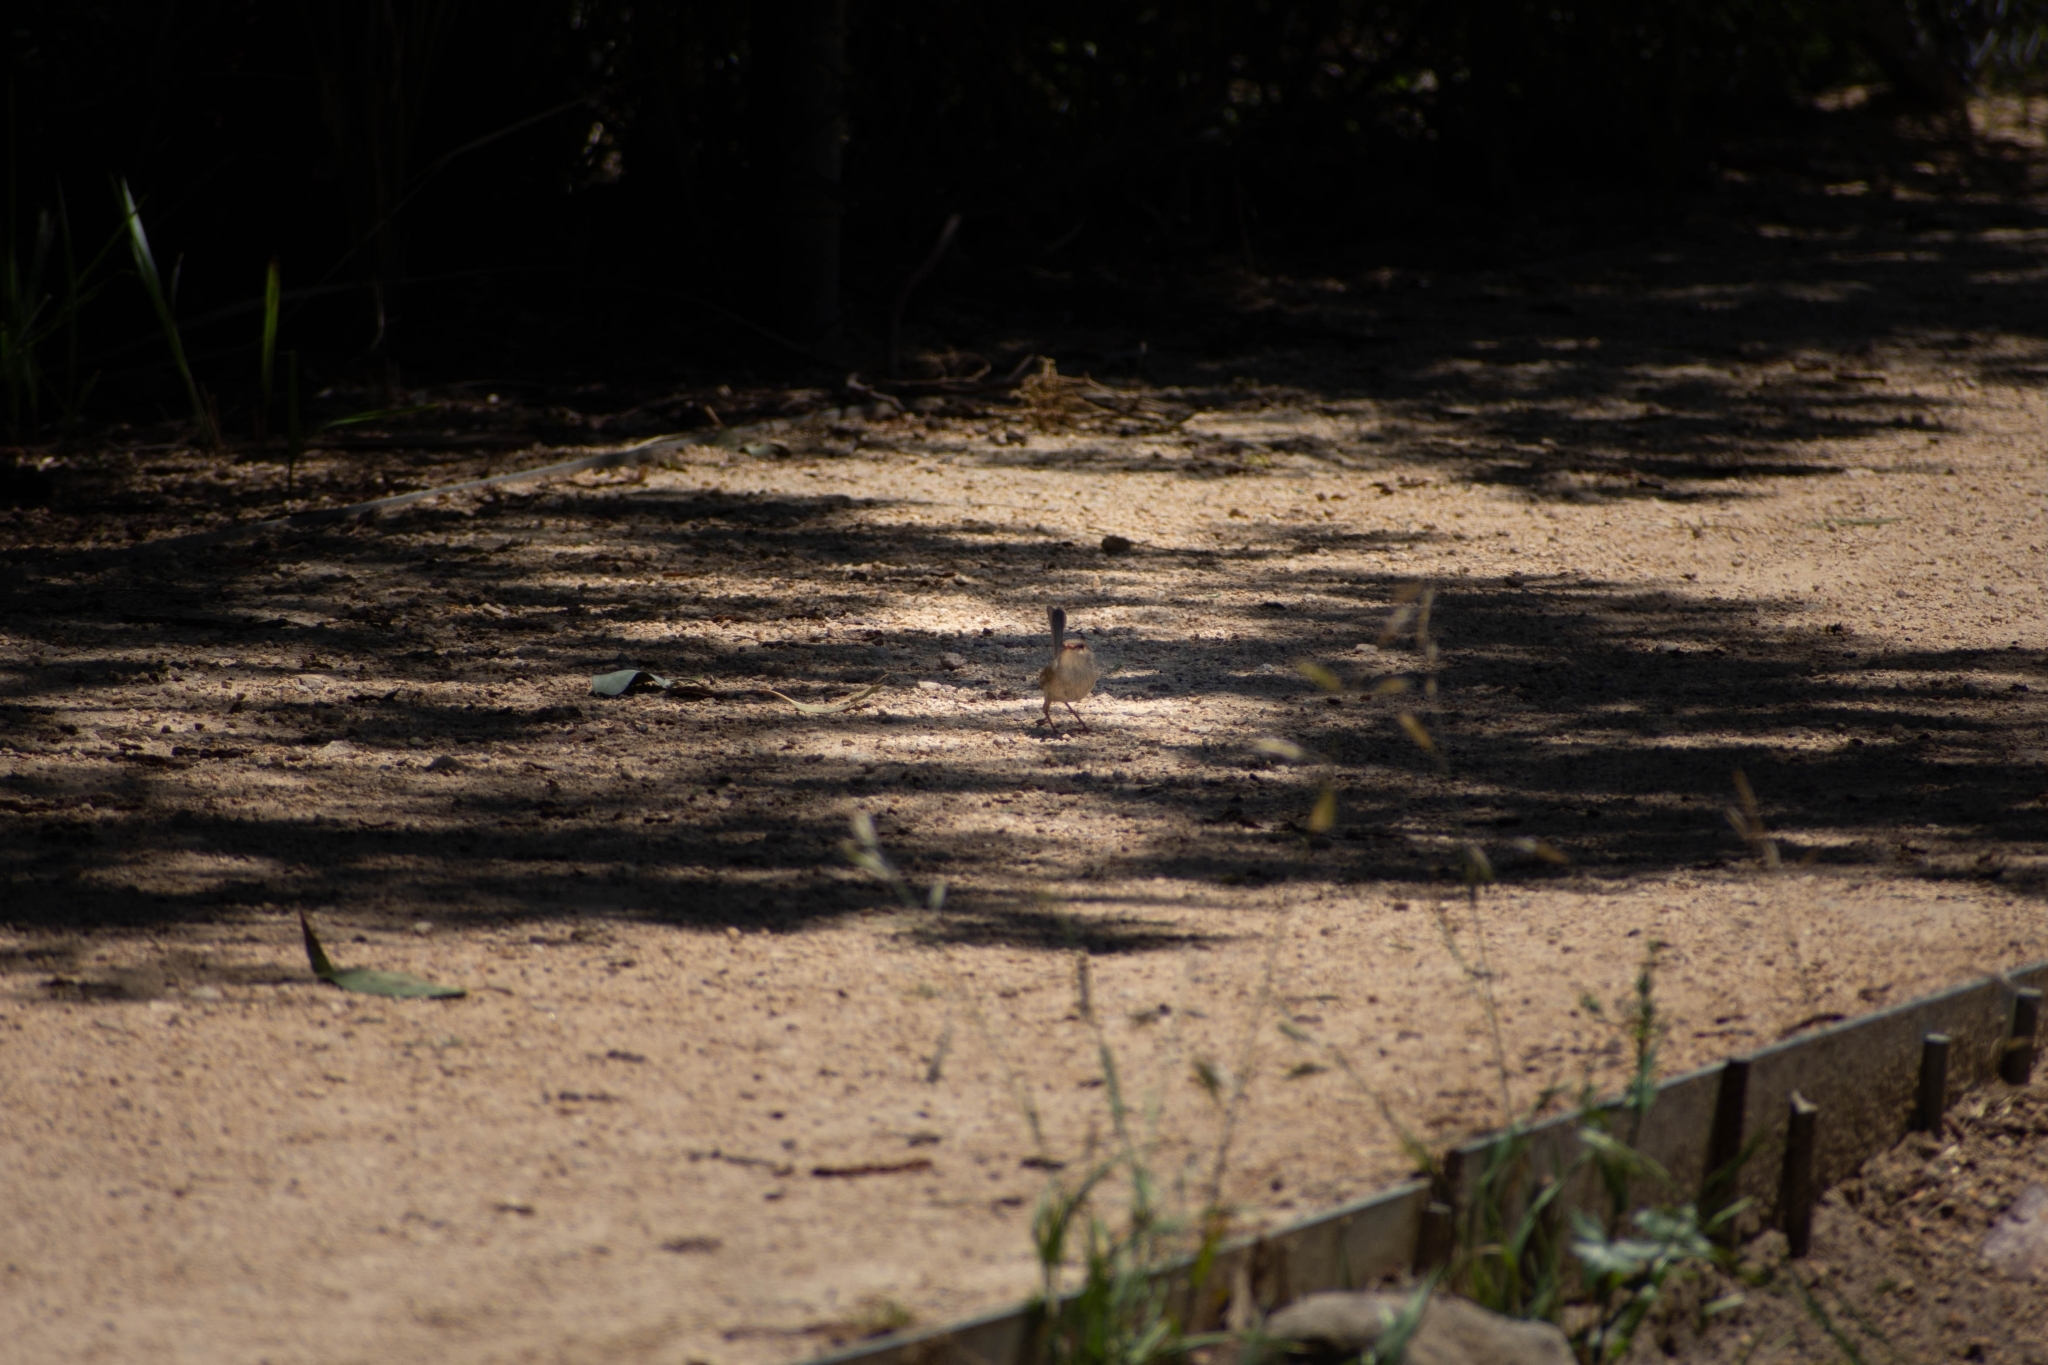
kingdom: Animalia
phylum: Chordata
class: Aves
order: Passeriformes
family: Maluridae
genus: Malurus
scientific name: Malurus cyaneus
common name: Superb fairywren
